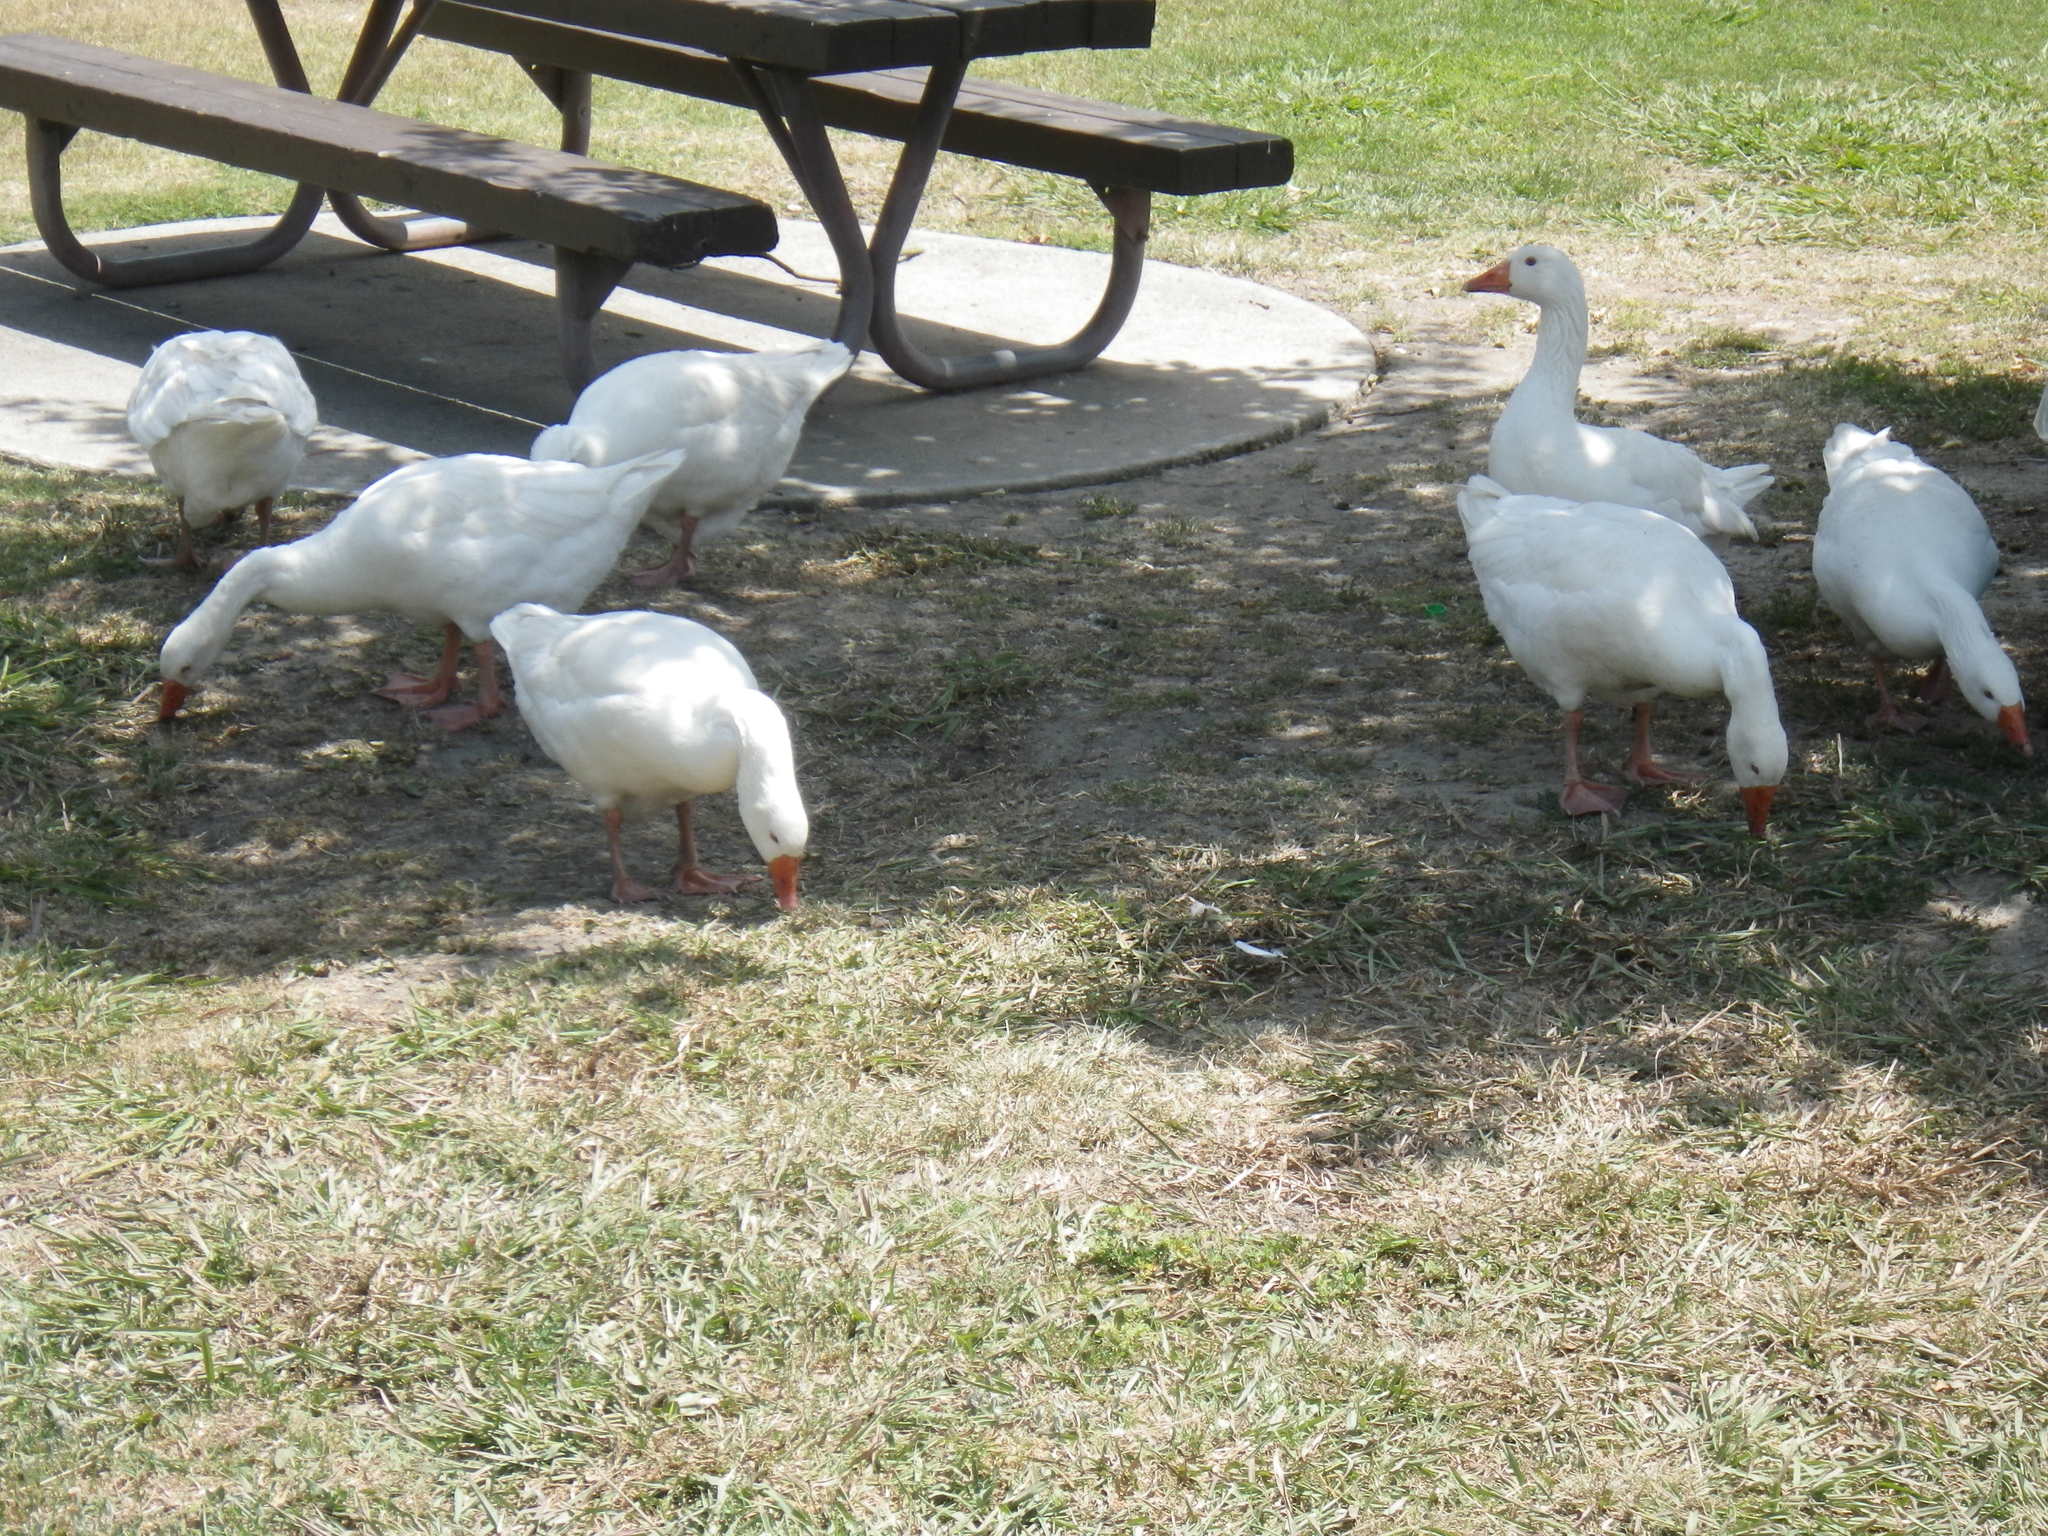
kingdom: Animalia
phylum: Chordata
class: Aves
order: Anseriformes
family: Anatidae
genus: Anser
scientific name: Anser anser
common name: Greylag goose
